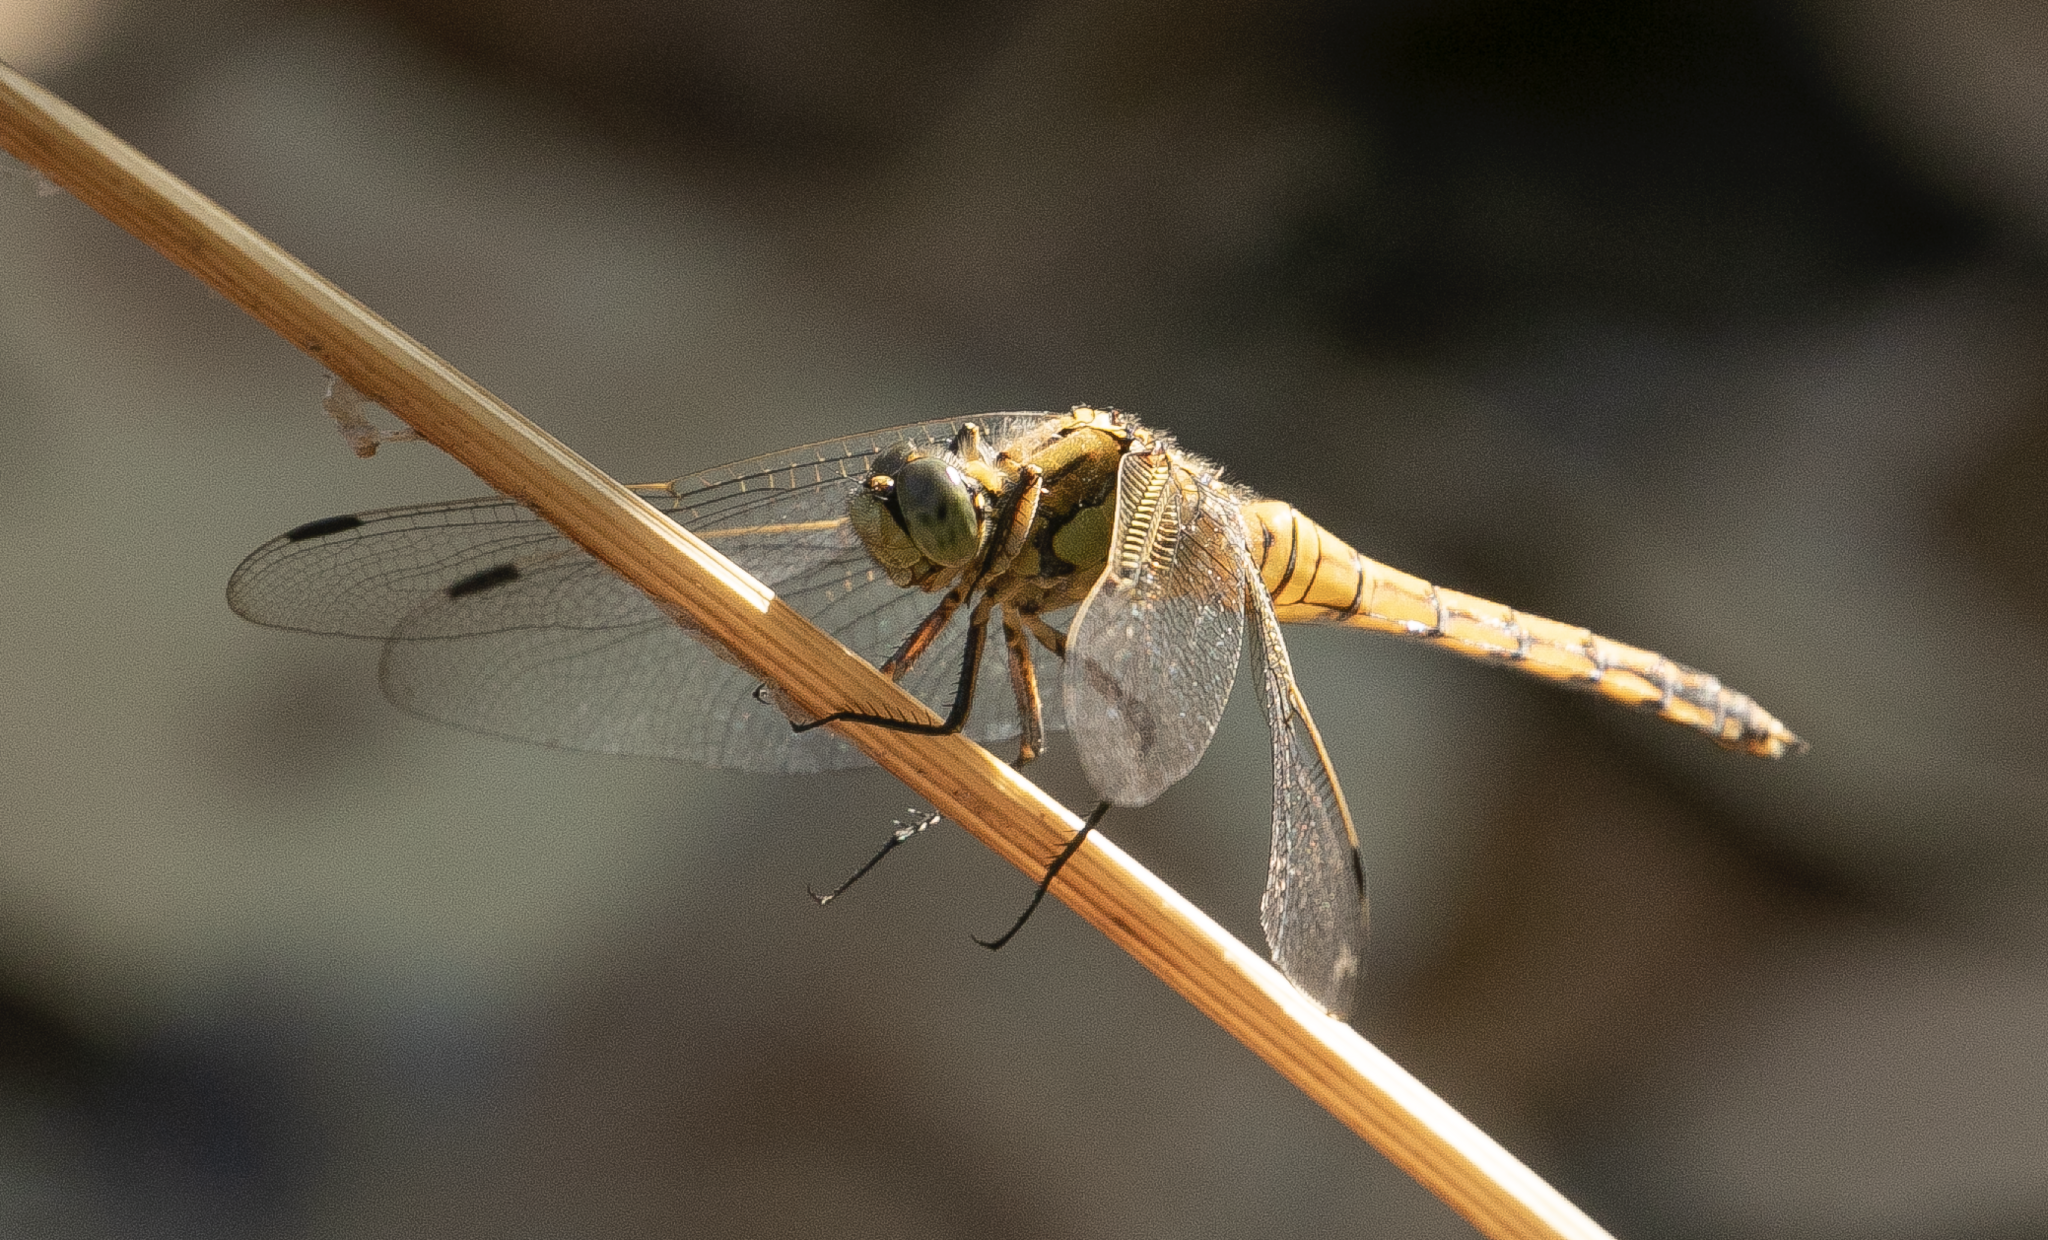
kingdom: Animalia
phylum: Arthropoda
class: Insecta
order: Odonata
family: Libellulidae
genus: Orthetrum
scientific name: Orthetrum cancellatum
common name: Black-tailed skimmer
